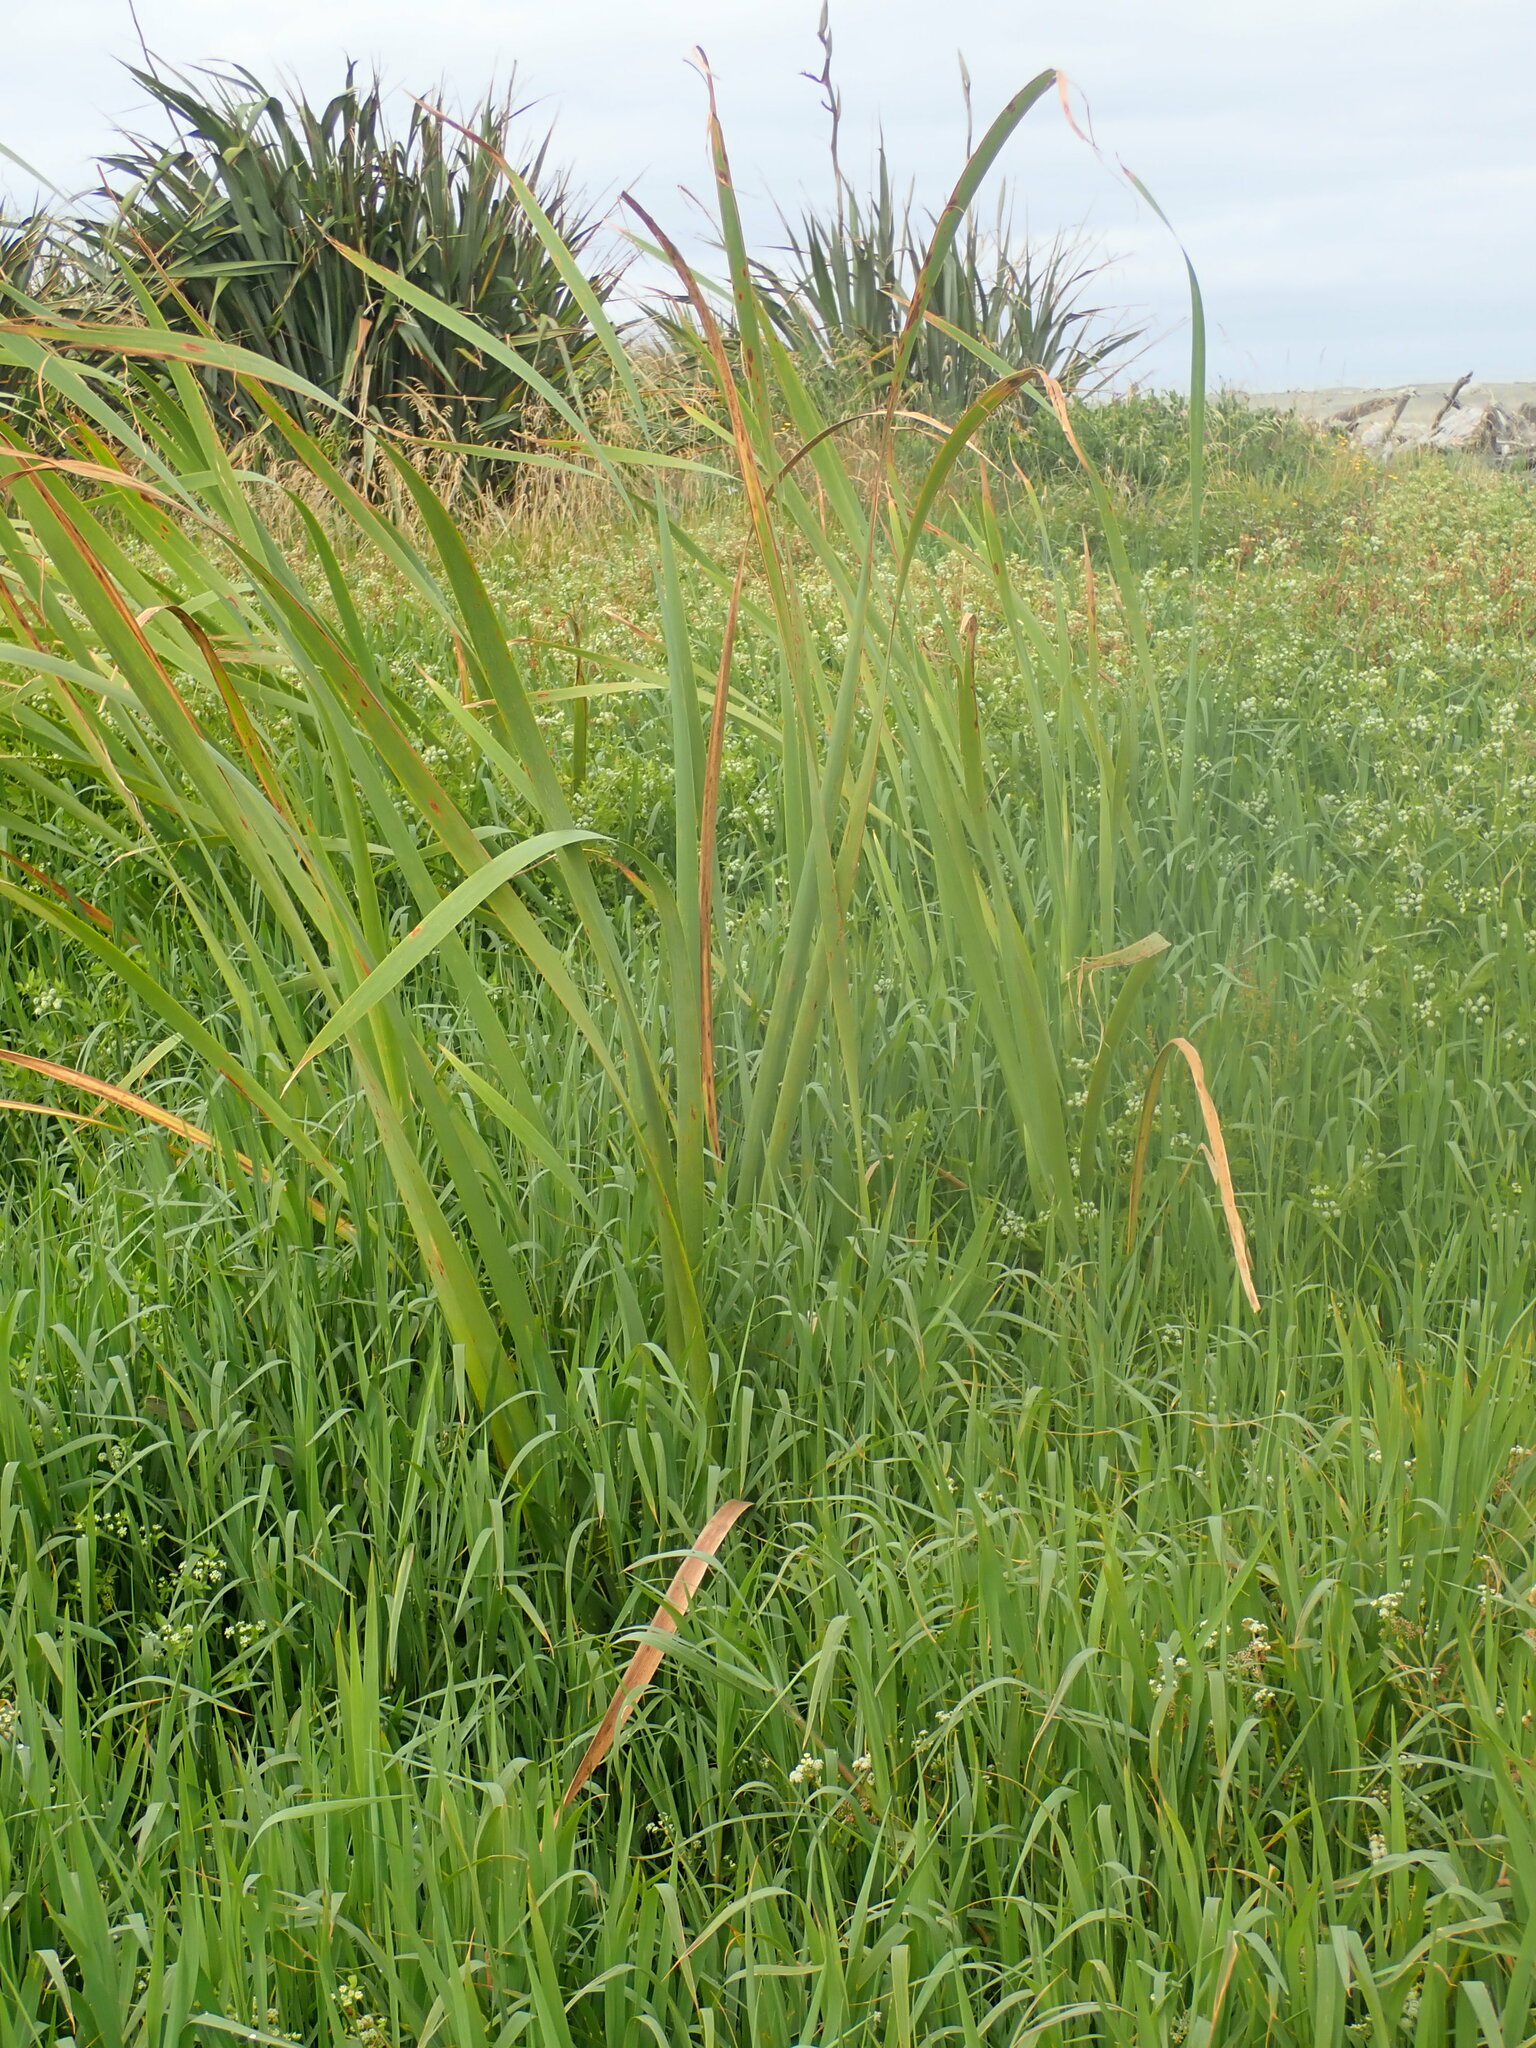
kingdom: Plantae
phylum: Tracheophyta
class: Liliopsida
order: Poales
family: Typhaceae
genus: Typha
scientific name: Typha orientalis
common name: Bullrush
